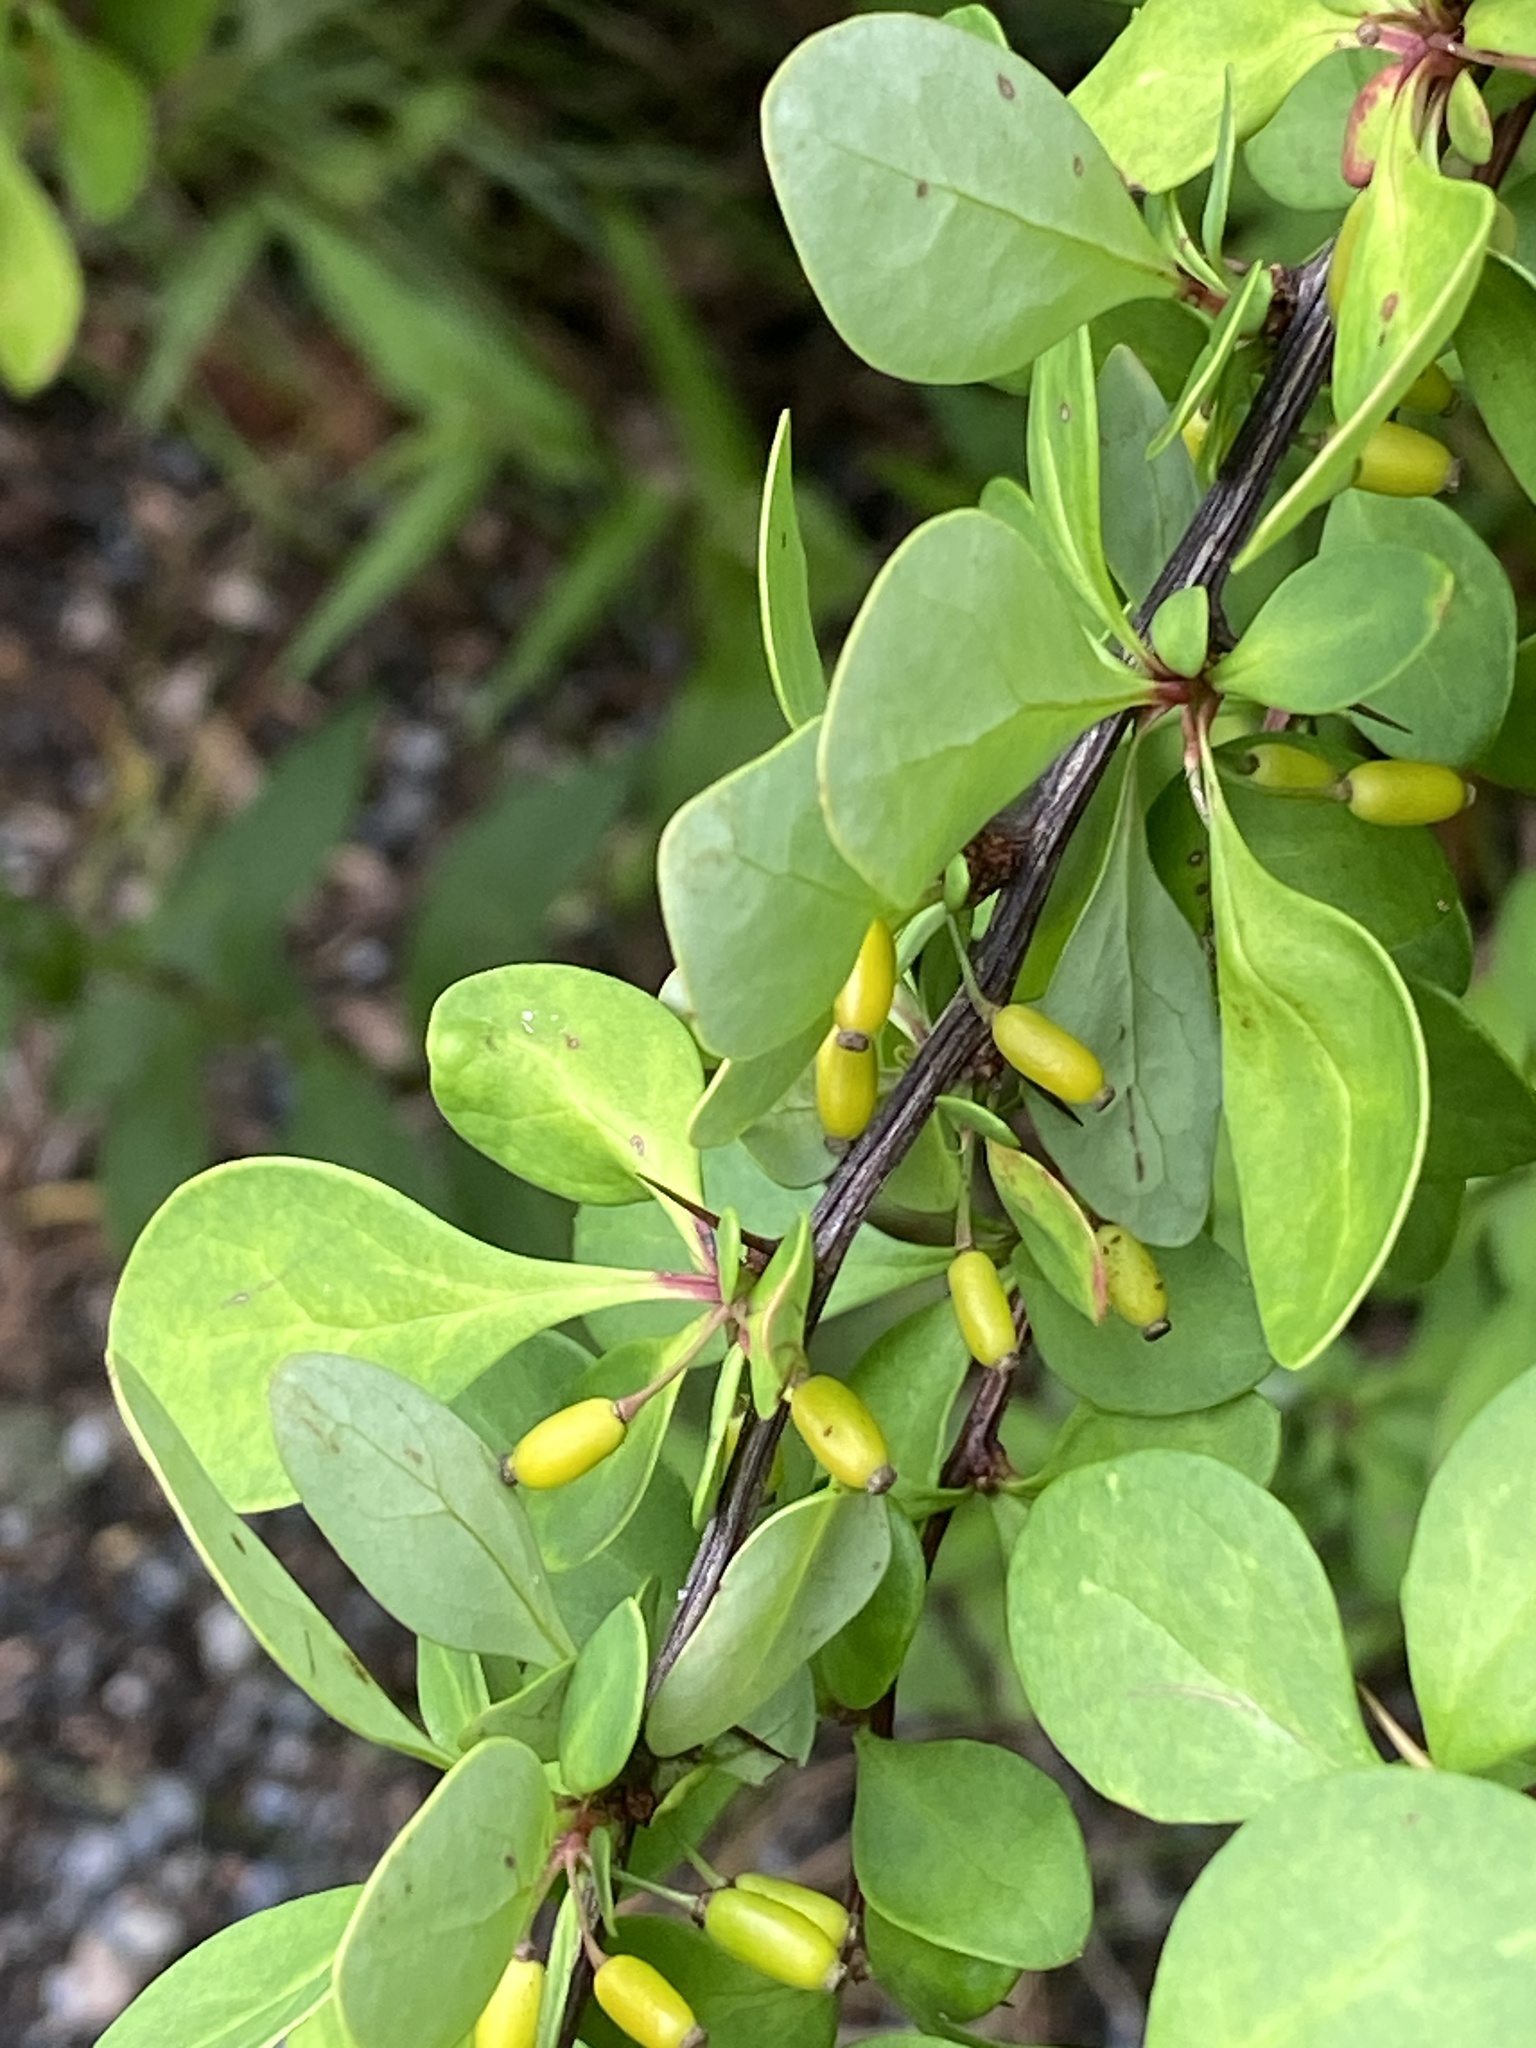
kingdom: Plantae
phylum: Tracheophyta
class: Magnoliopsida
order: Ranunculales
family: Berberidaceae
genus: Berberis
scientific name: Berberis thunbergii
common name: Japanese barberry
